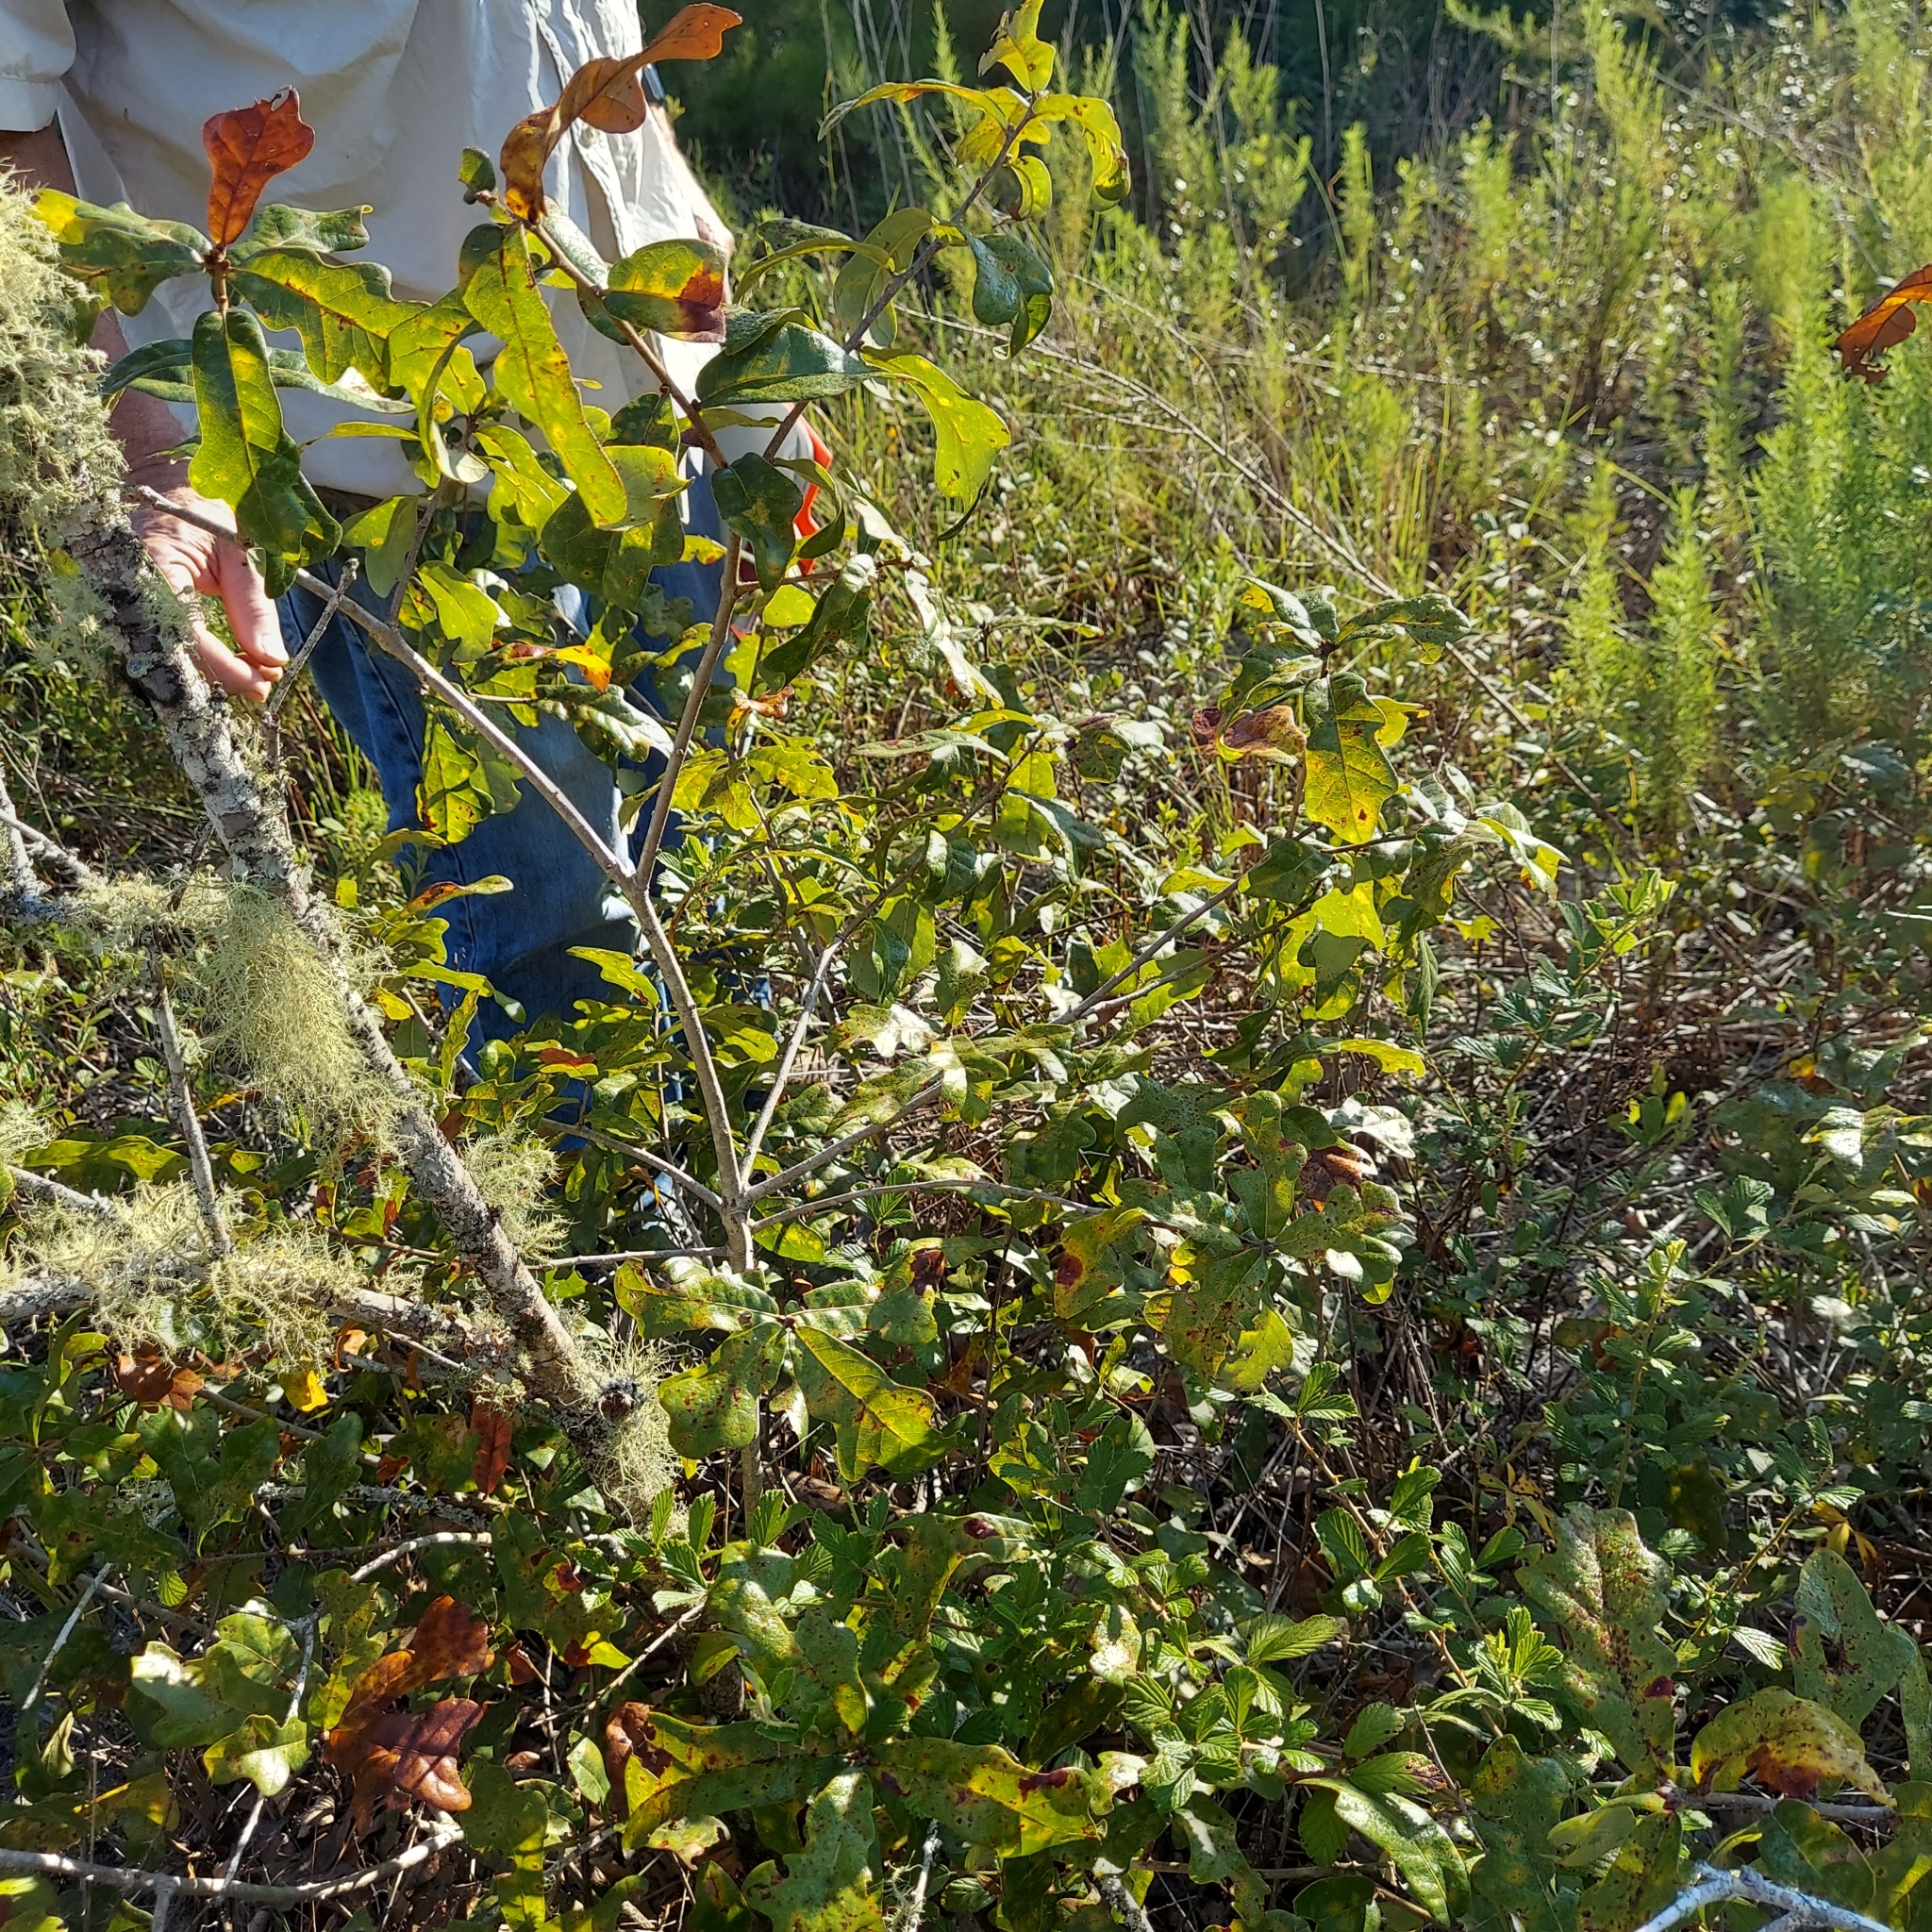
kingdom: Plantae
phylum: Tracheophyta
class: Magnoliopsida
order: Fagales
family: Fagaceae
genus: Quercus
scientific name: Quercus chapmanii
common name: Chapman oak
